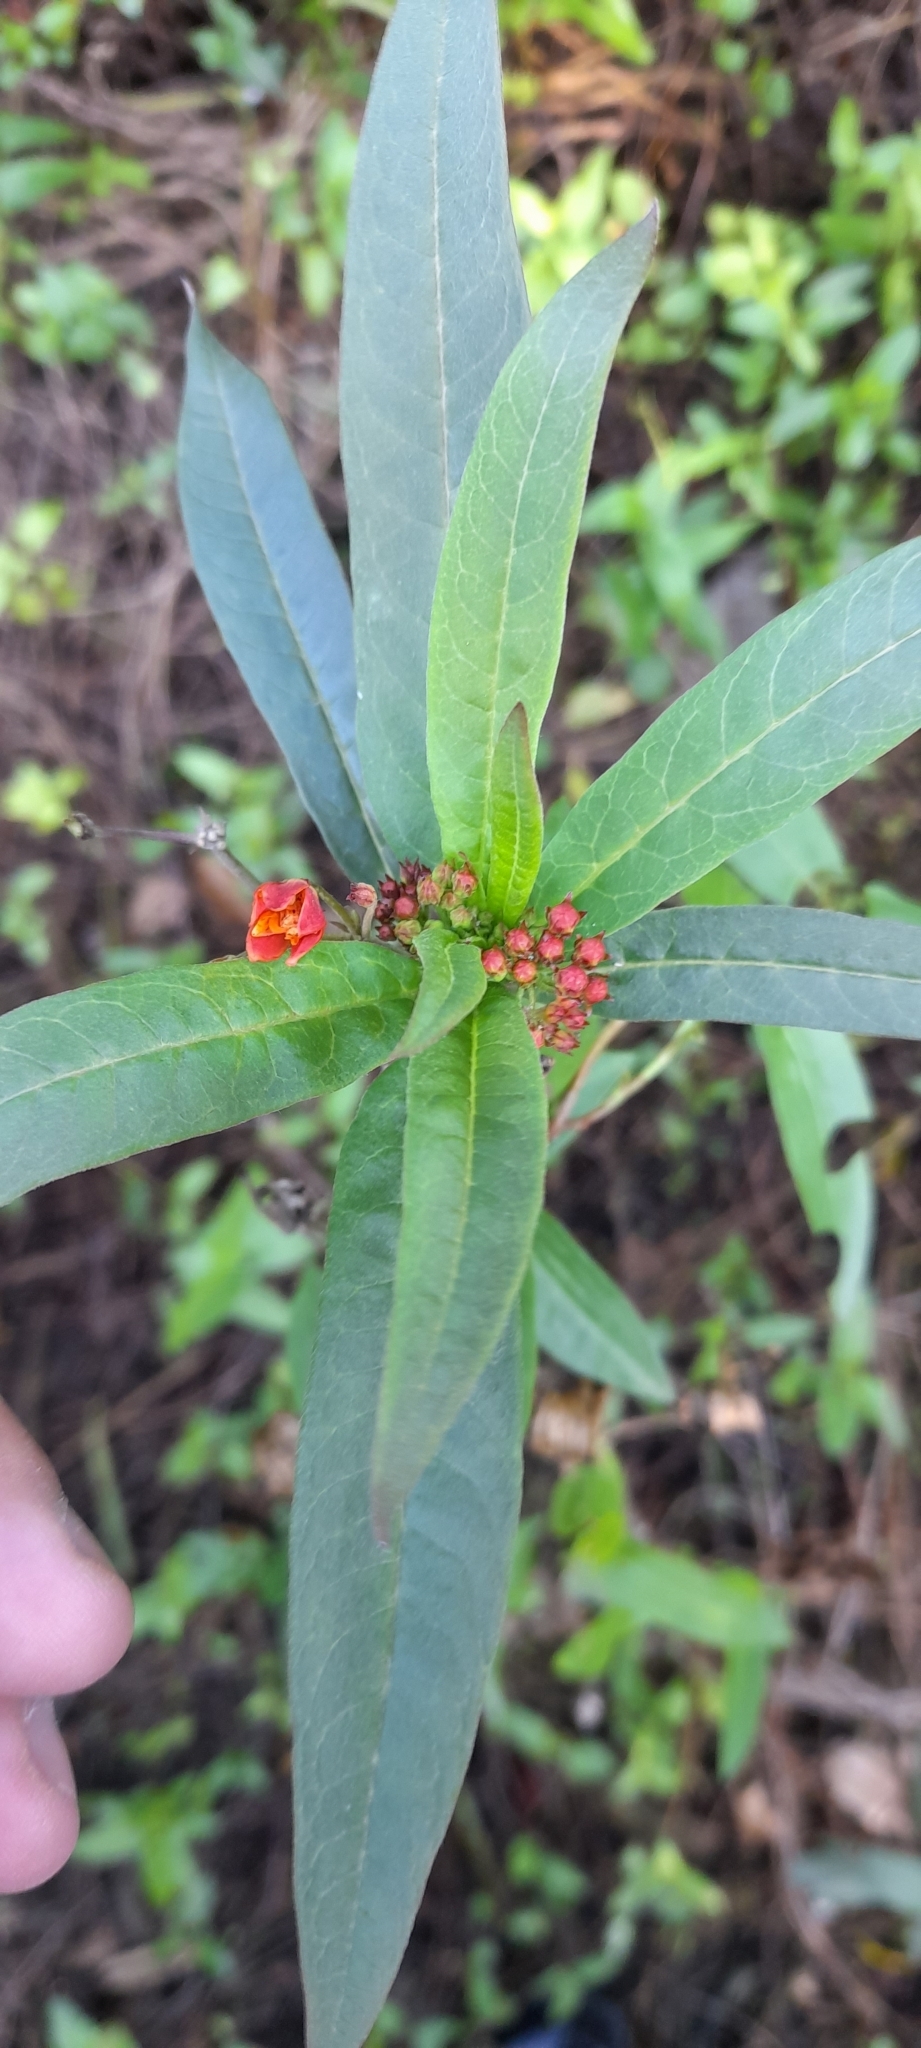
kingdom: Plantae
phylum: Tracheophyta
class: Magnoliopsida
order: Gentianales
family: Apocynaceae
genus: Asclepias
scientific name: Asclepias curassavica
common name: Bloodflower
